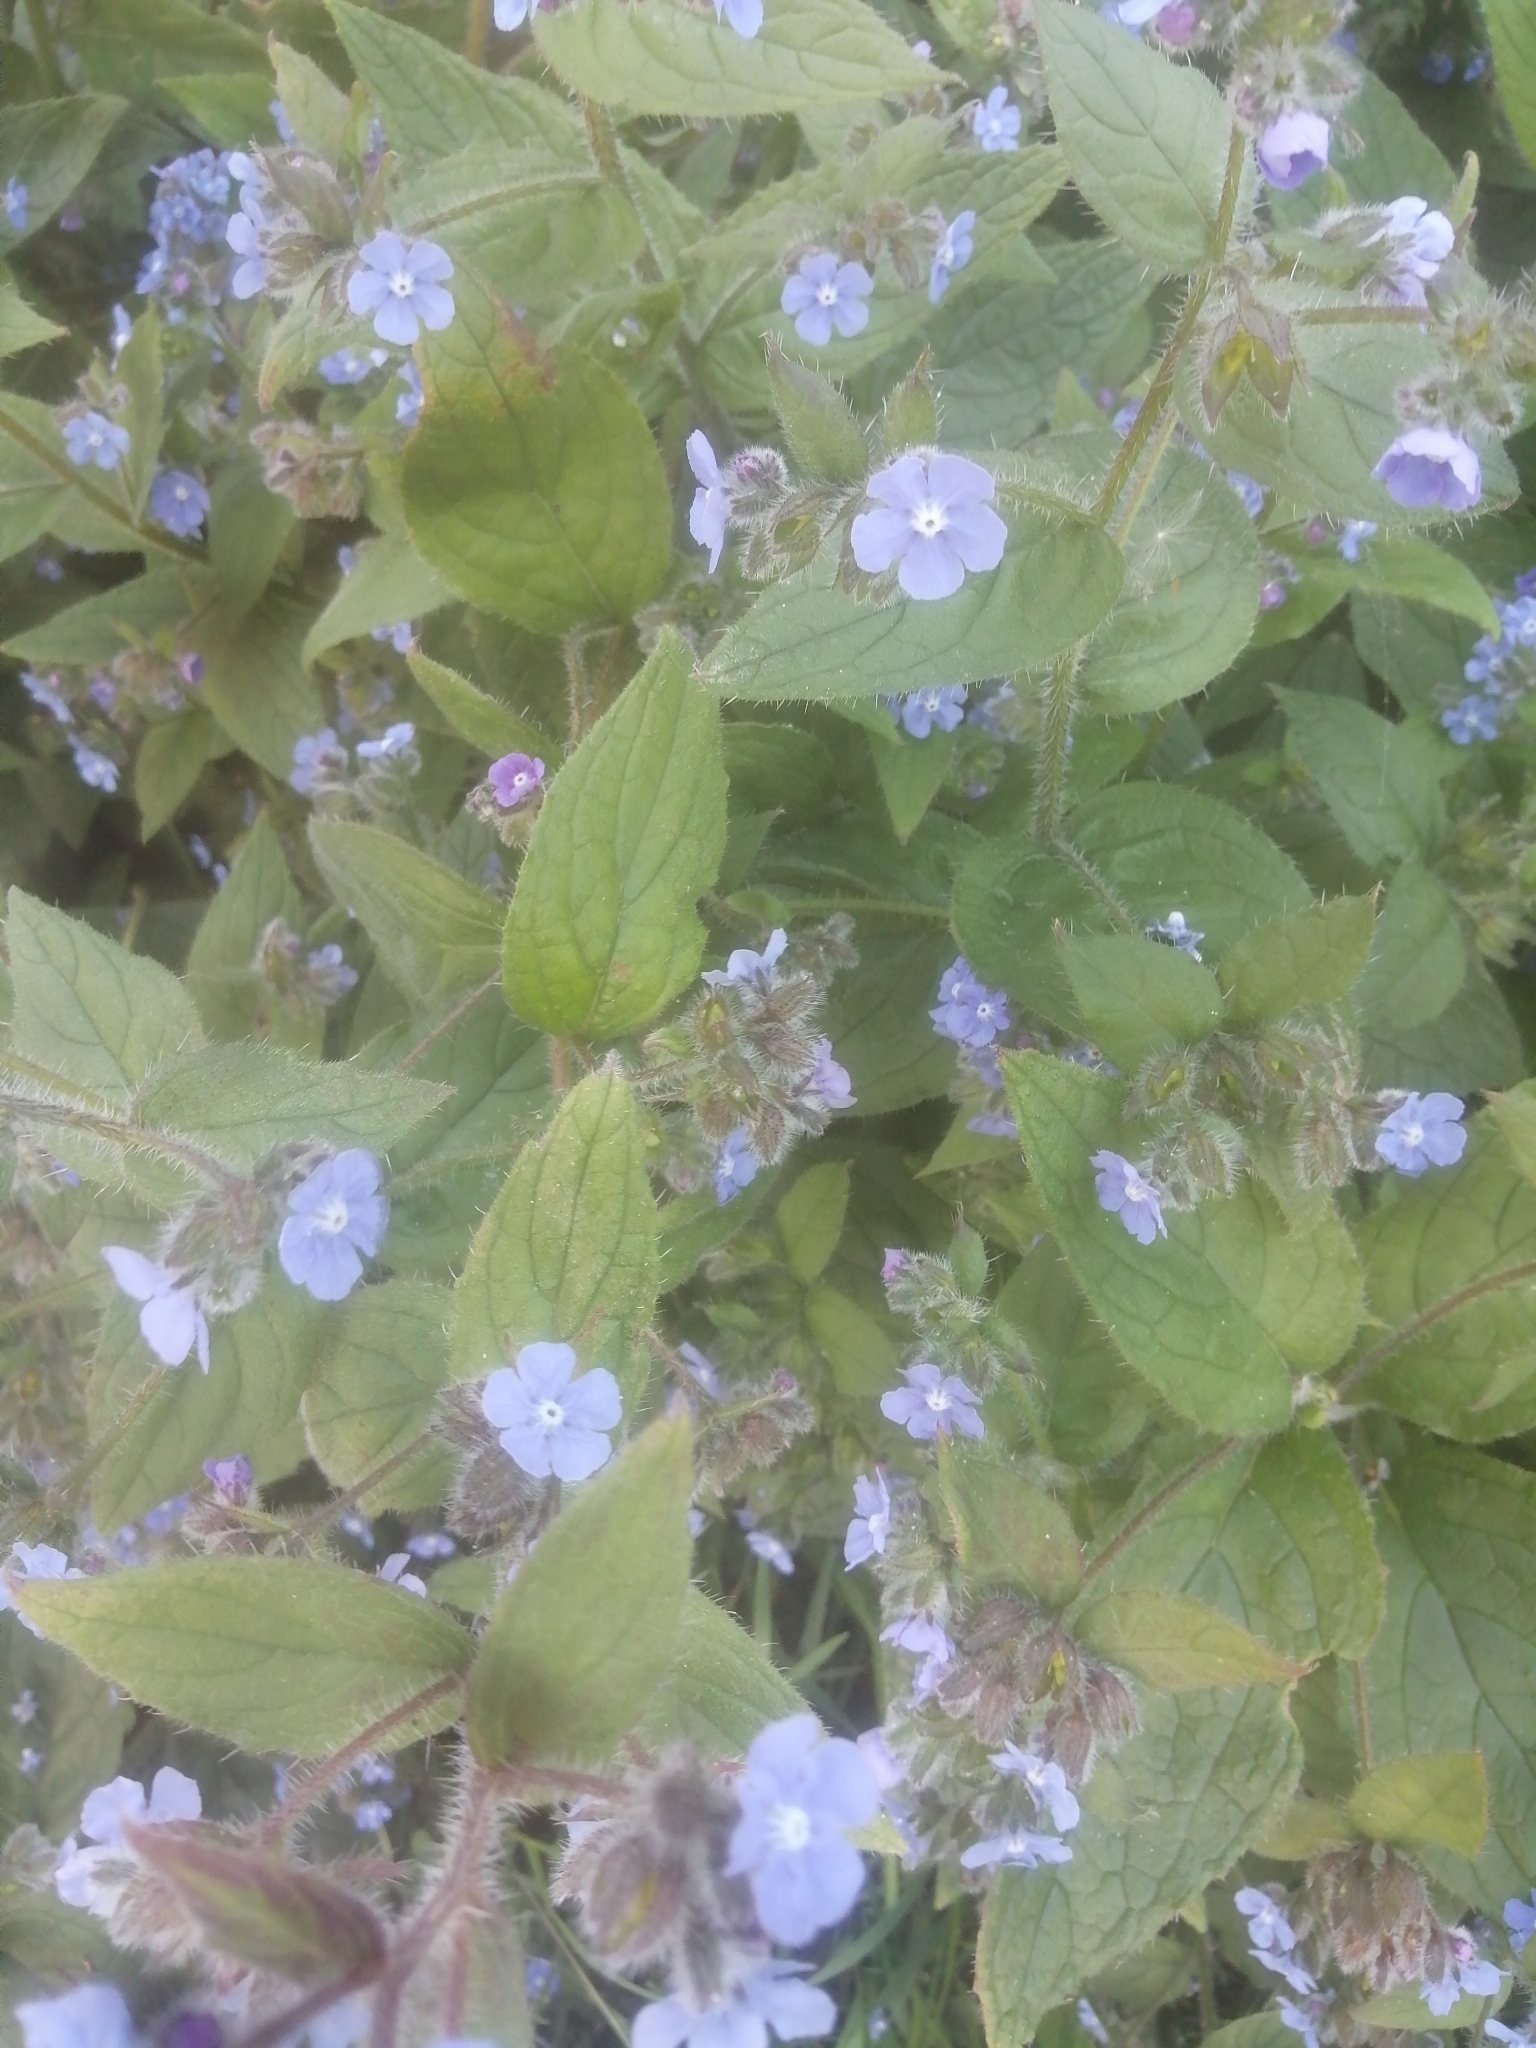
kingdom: Plantae
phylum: Tracheophyta
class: Magnoliopsida
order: Boraginales
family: Boraginaceae
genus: Pentaglottis
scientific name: Pentaglottis sempervirens
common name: Green alkanet
